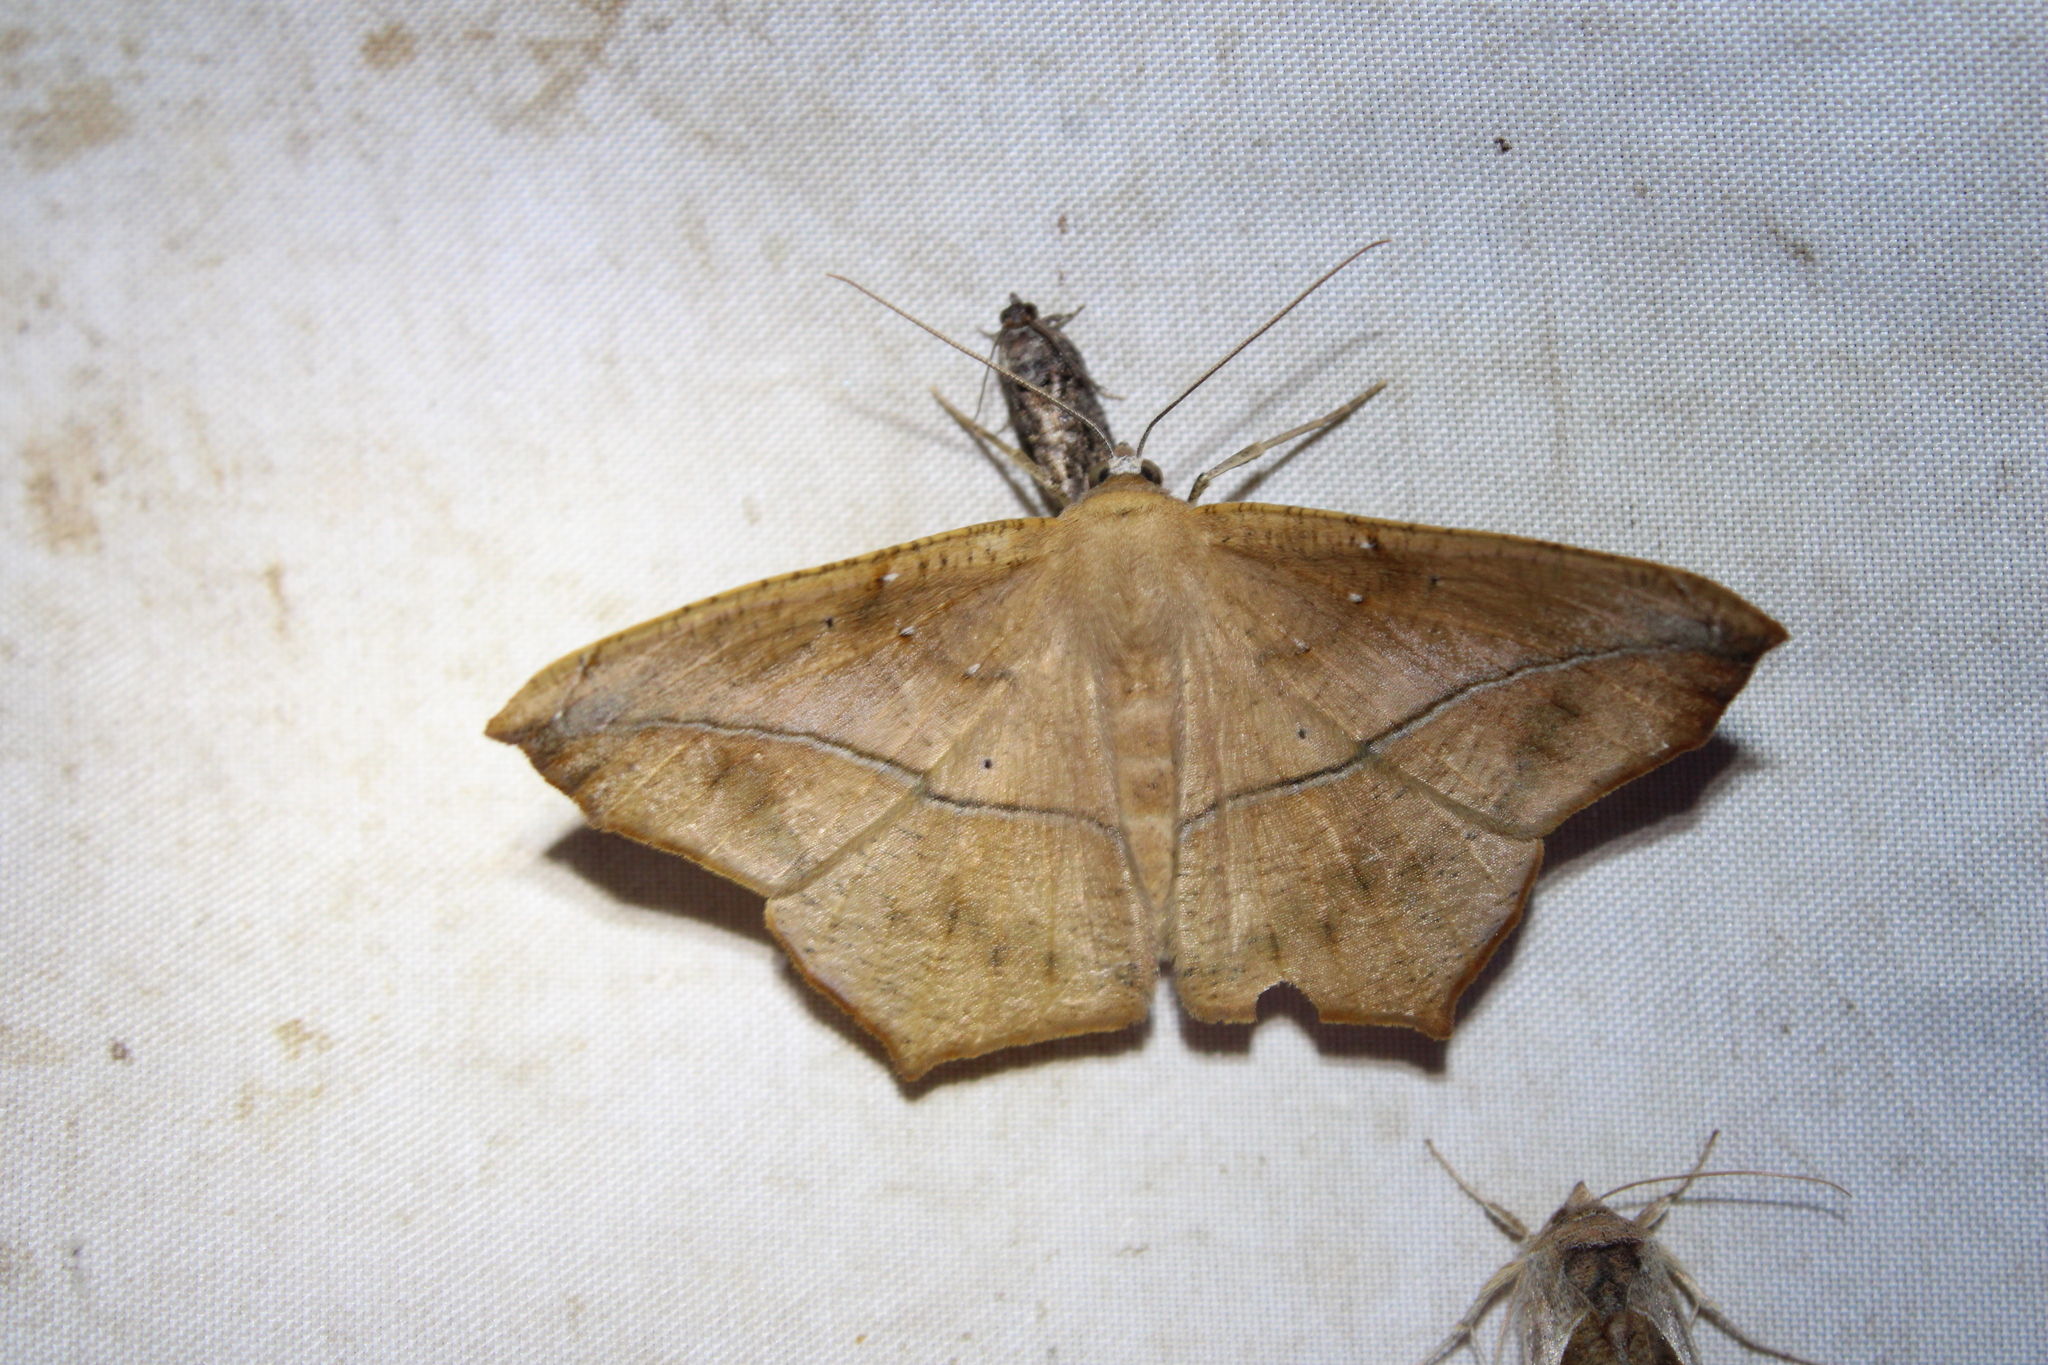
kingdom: Animalia
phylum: Arthropoda
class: Insecta
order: Lepidoptera
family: Geometridae
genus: Prochoerodes
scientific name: Prochoerodes lineola
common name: Large maple spanworm
